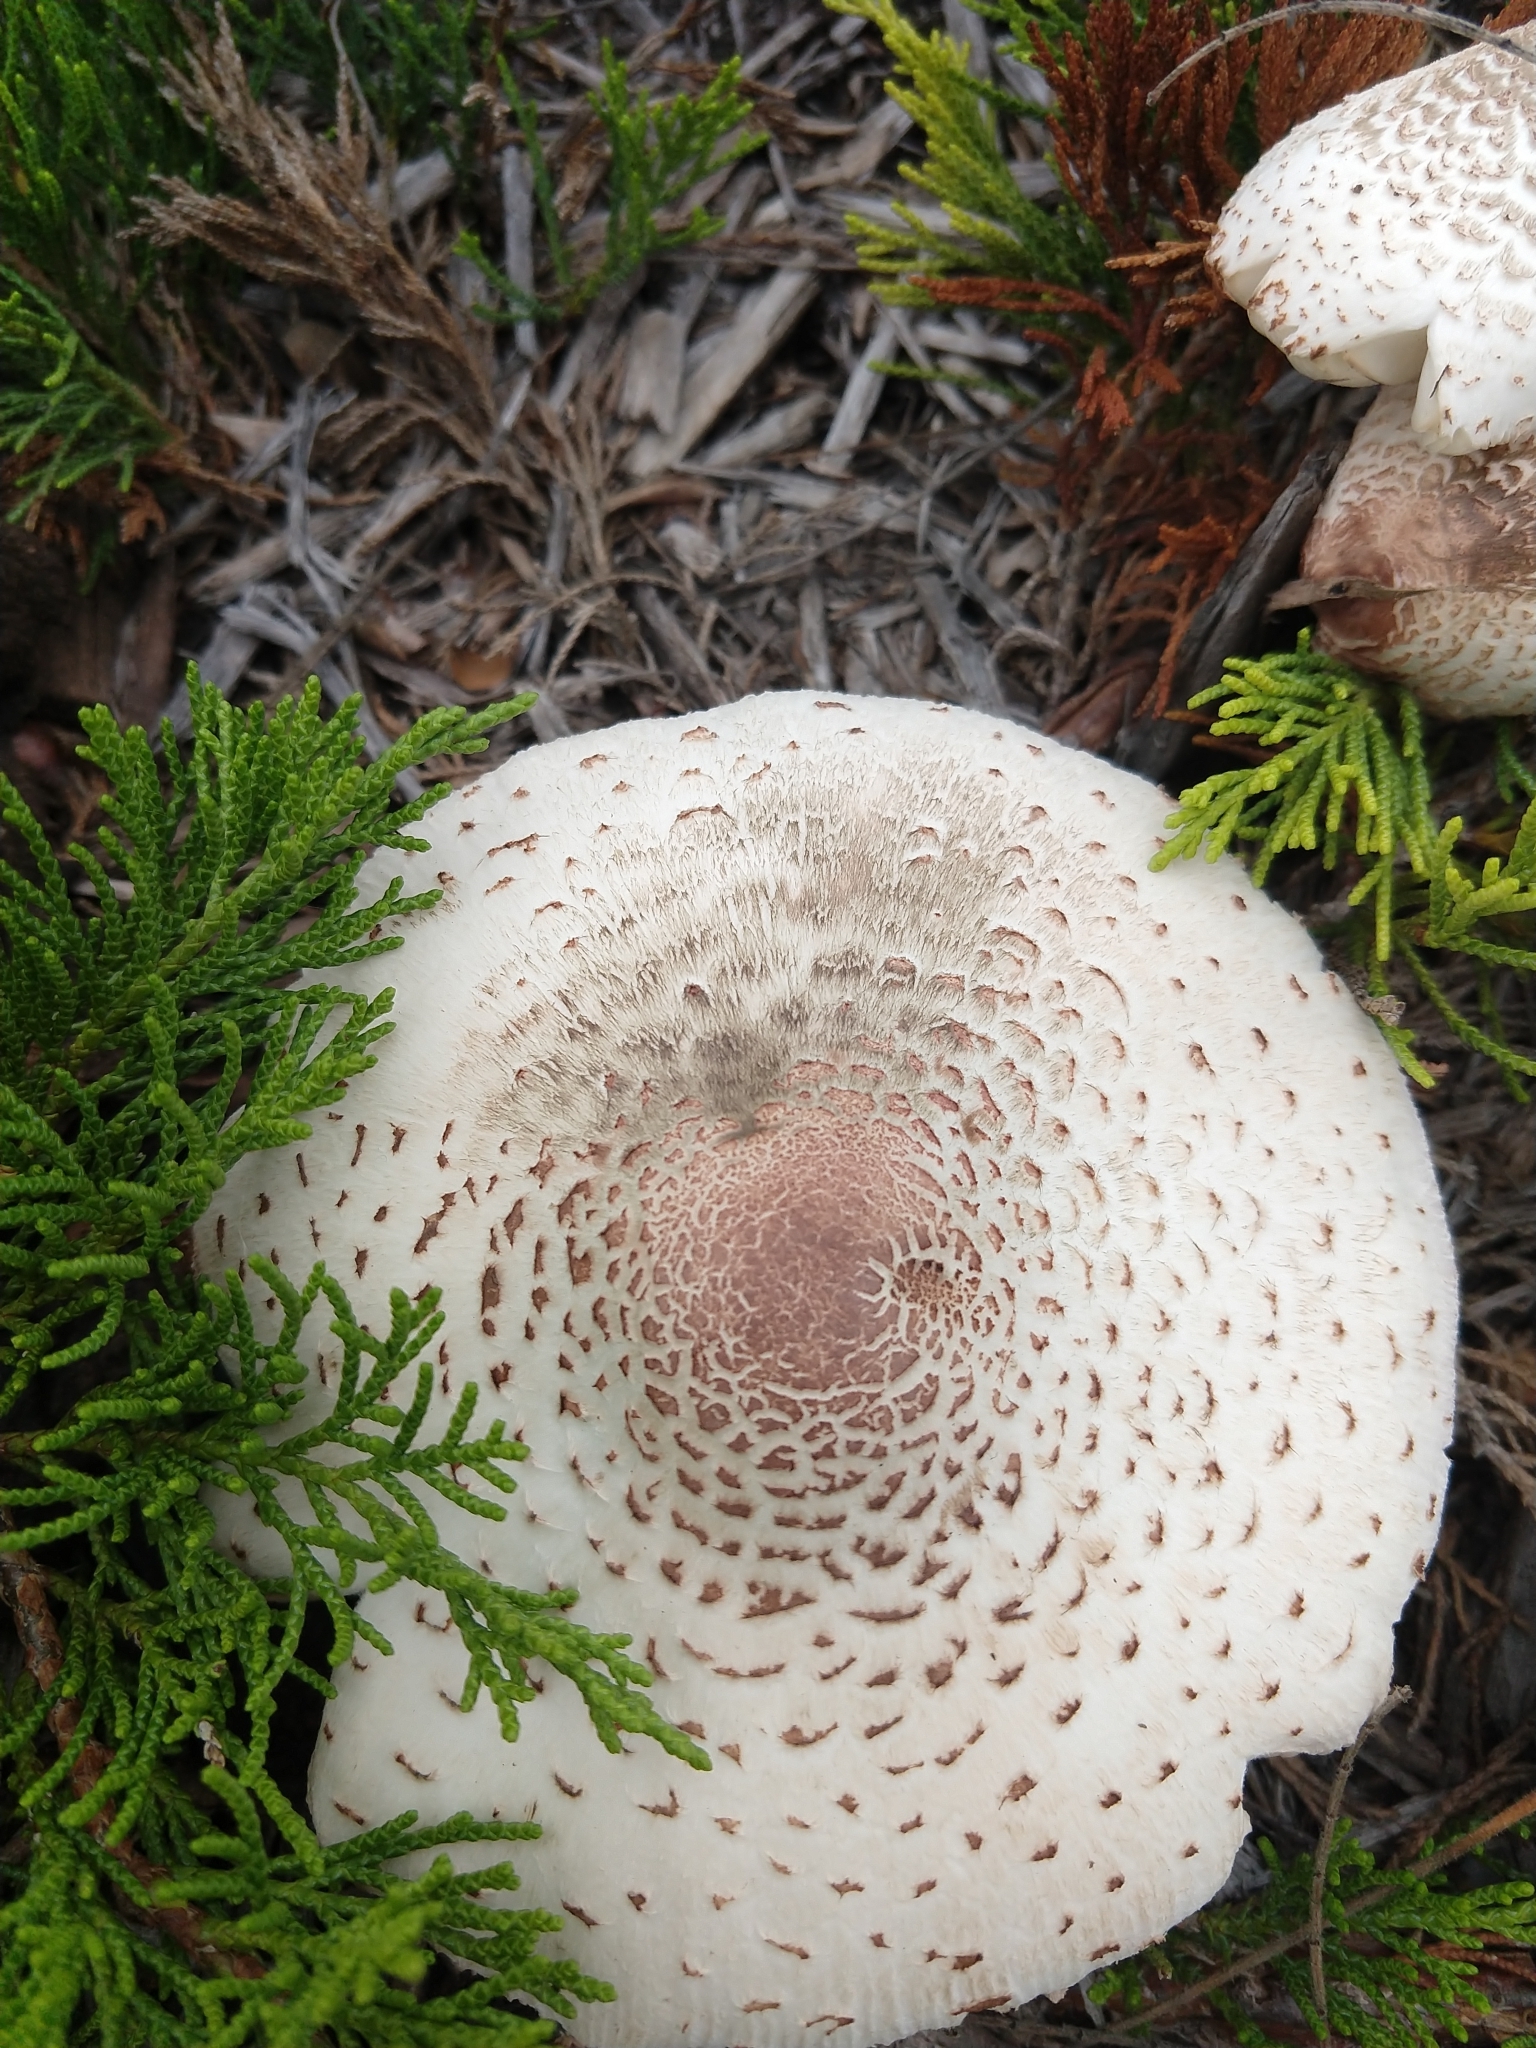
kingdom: Fungi
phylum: Basidiomycota
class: Agaricomycetes
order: Agaricales
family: Agaricaceae
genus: Leucoagaricus
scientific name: Leucoagaricus americanus
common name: Reddening lepiota
